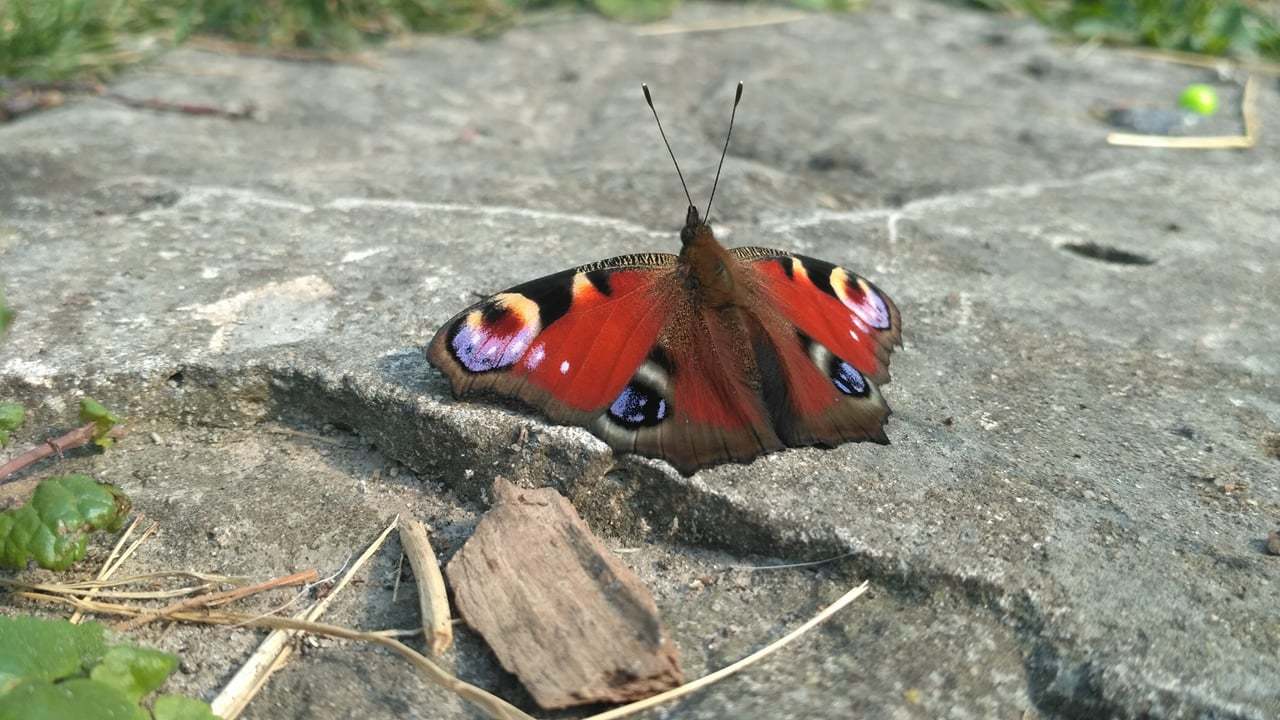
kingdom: Animalia
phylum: Arthropoda
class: Insecta
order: Lepidoptera
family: Nymphalidae
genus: Aglais
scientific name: Aglais io
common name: Peacock
